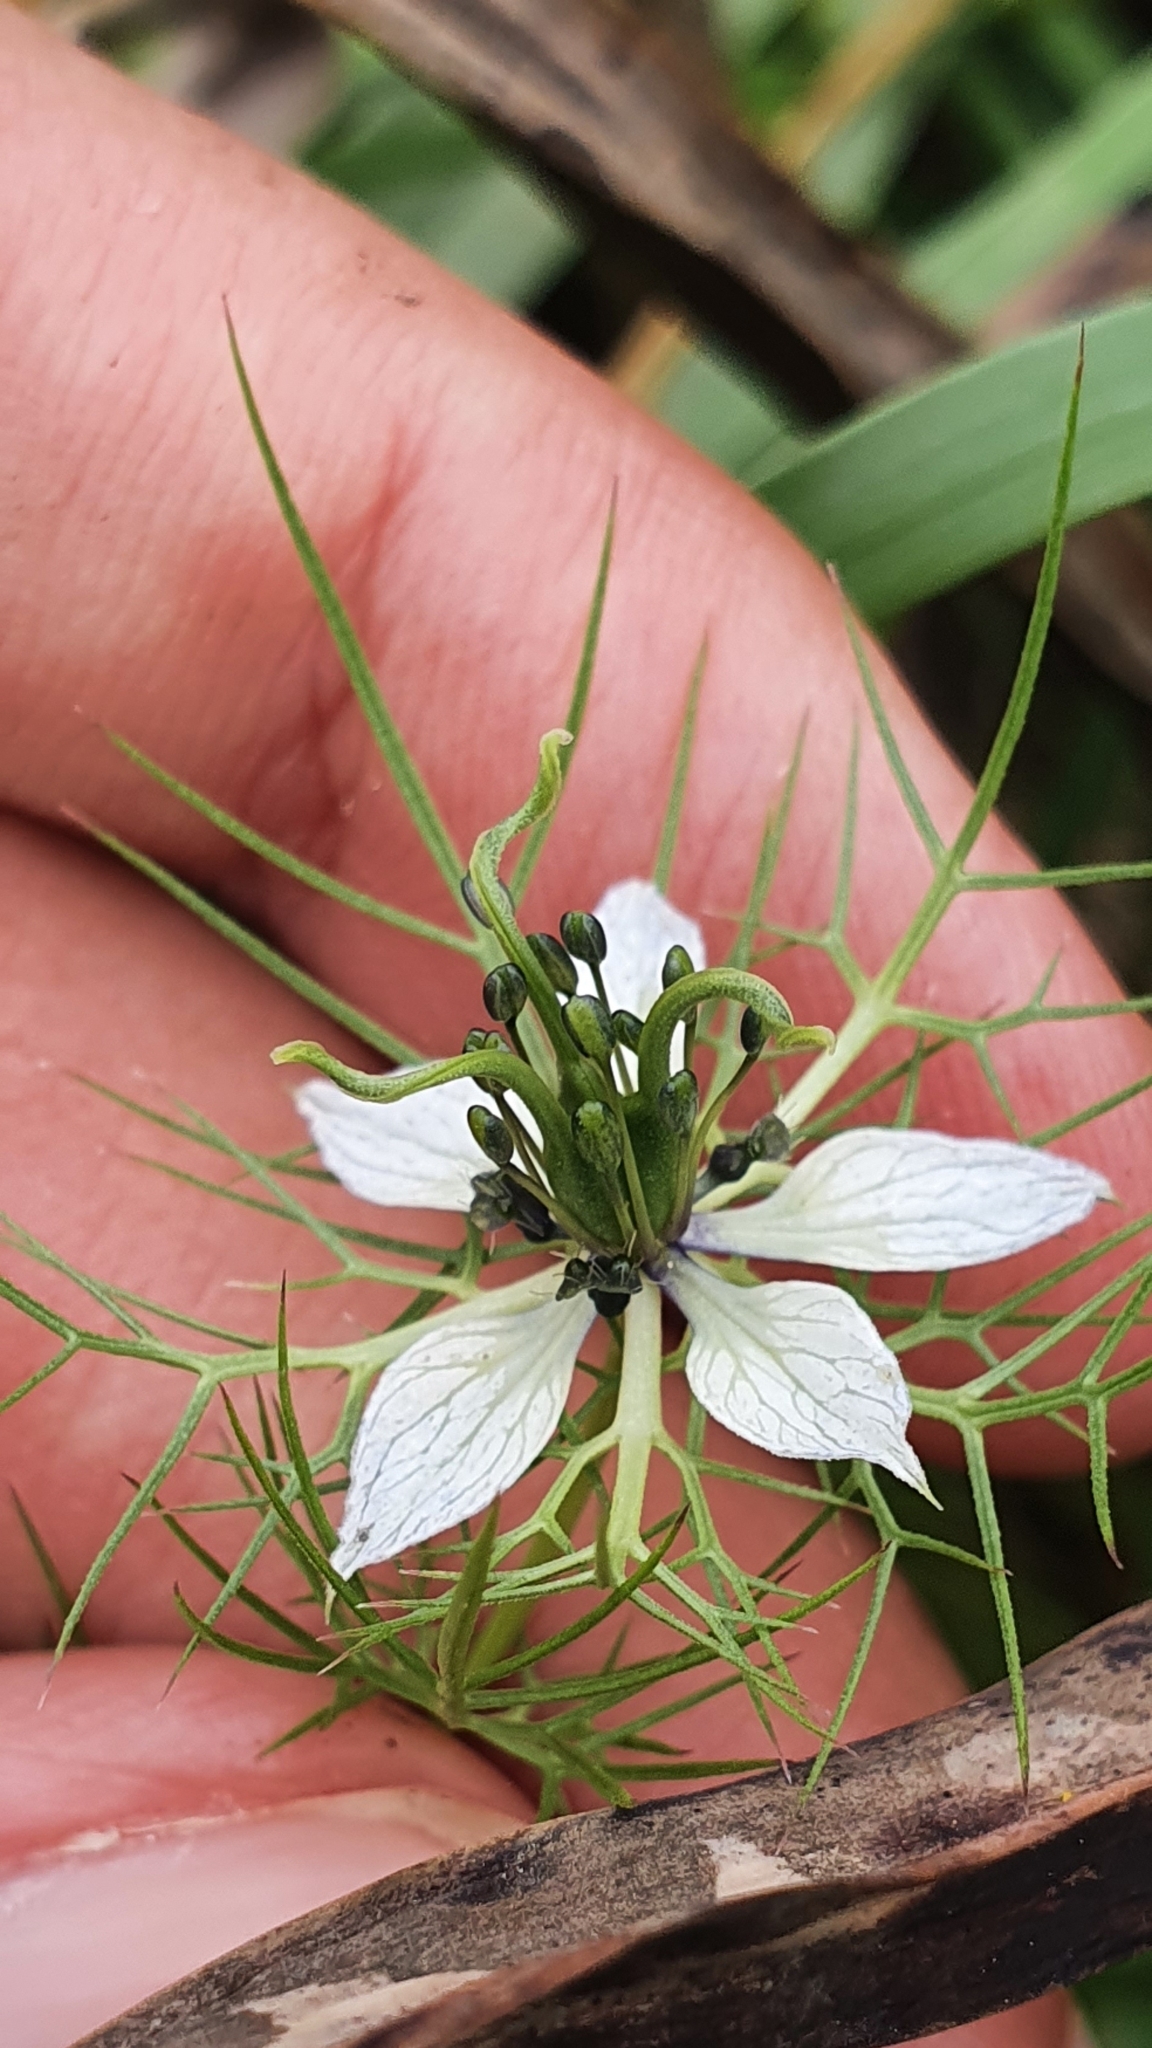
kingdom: Plantae
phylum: Tracheophyta
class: Magnoliopsida
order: Ranunculales
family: Ranunculaceae
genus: Nigella
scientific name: Nigella damascena
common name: Love-in-a-mist
